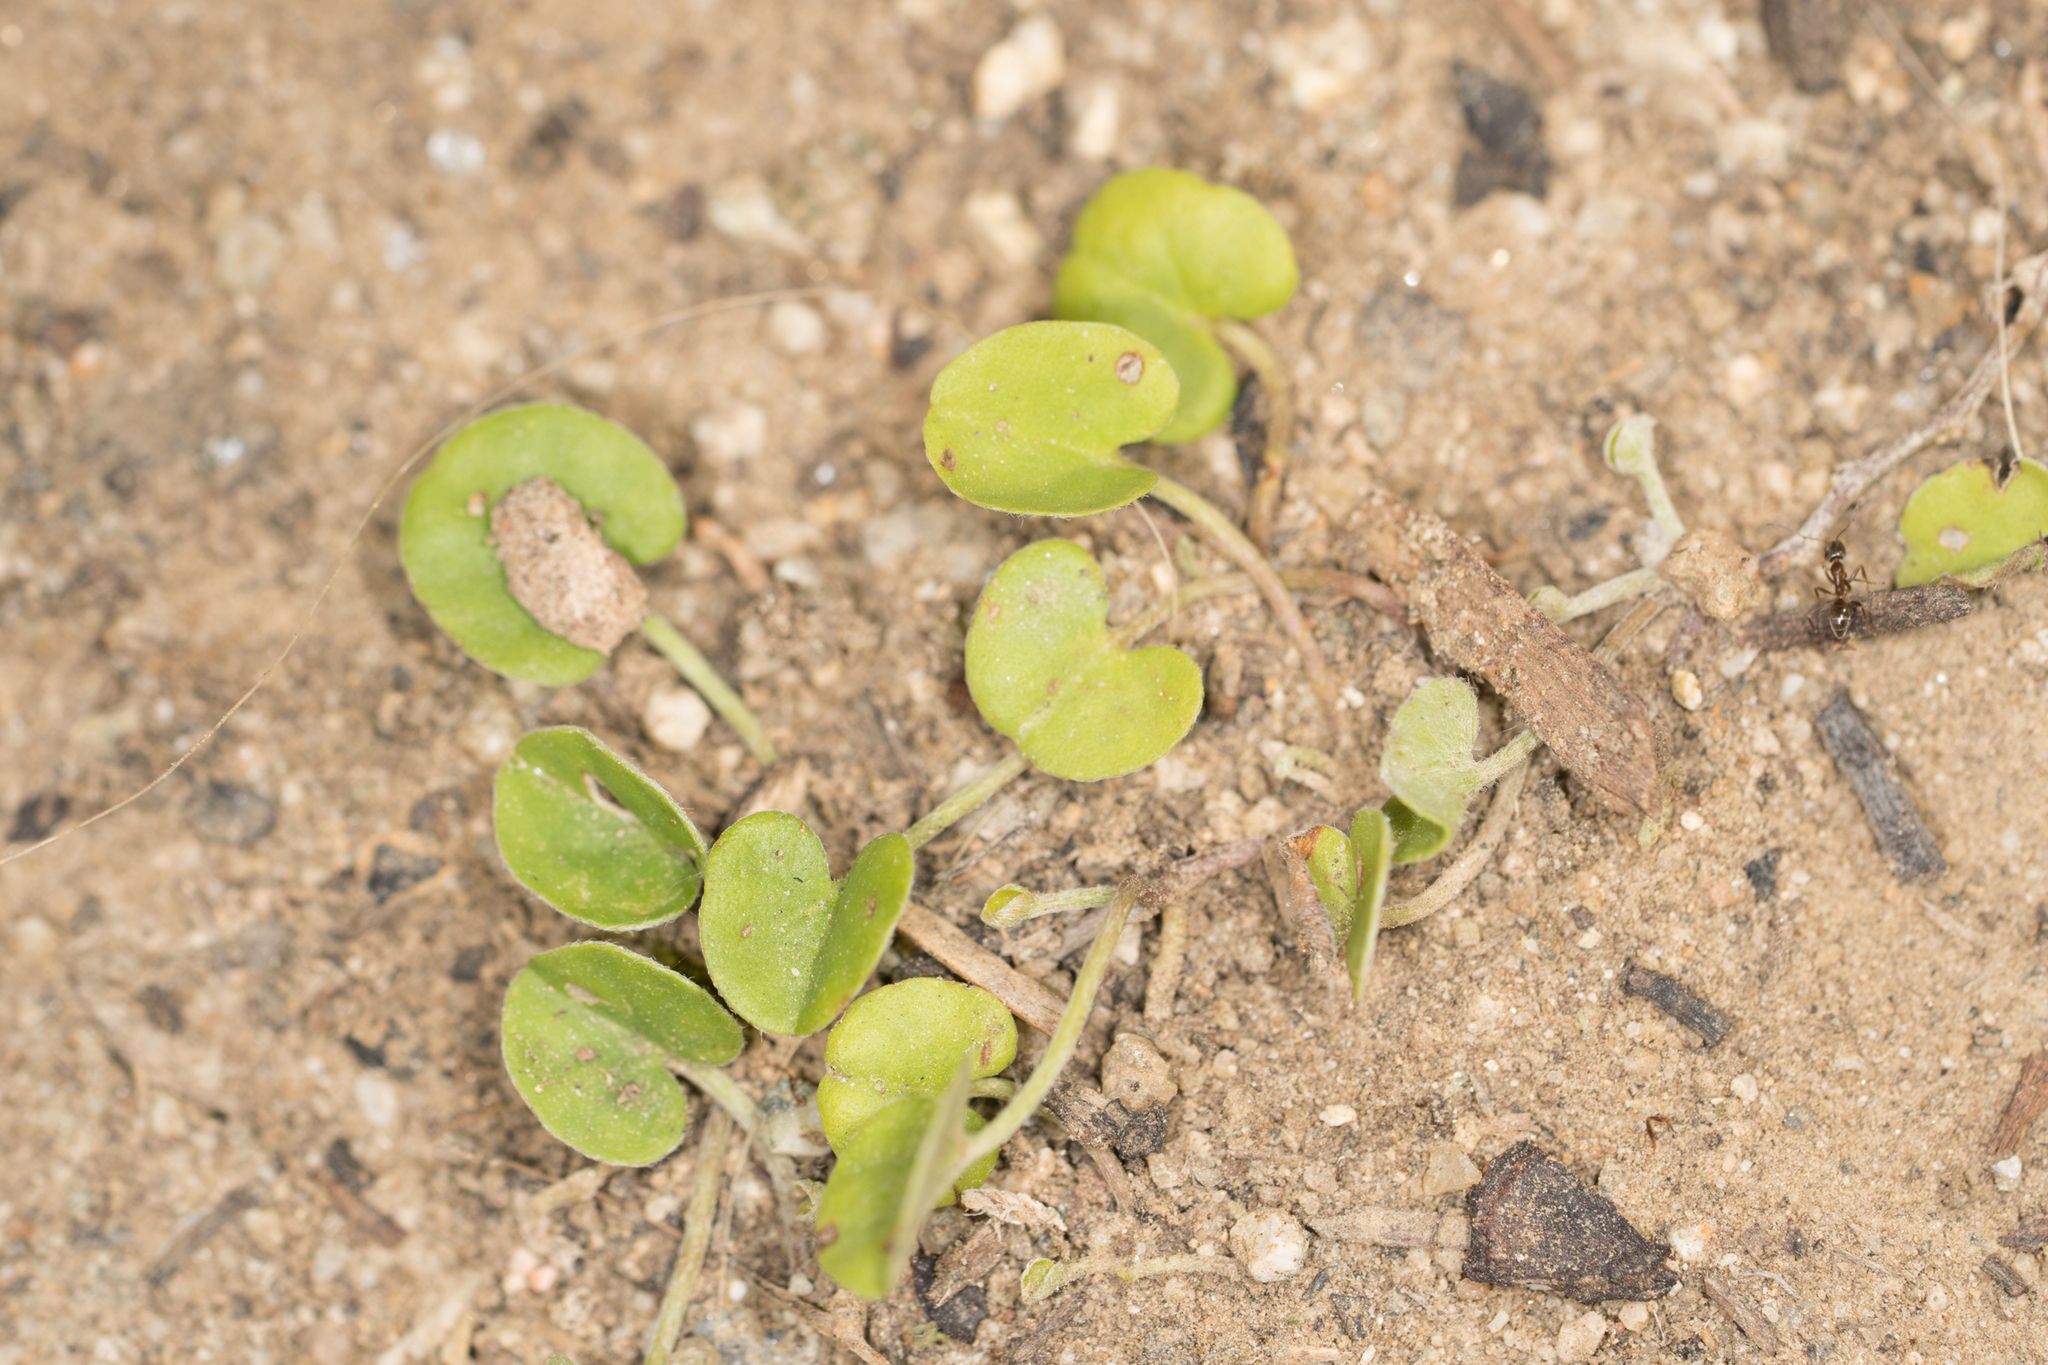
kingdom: Plantae
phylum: Tracheophyta
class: Magnoliopsida
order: Solanales
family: Convolvulaceae
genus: Dichondra
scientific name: Dichondra micrantha
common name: Kidneyweed
